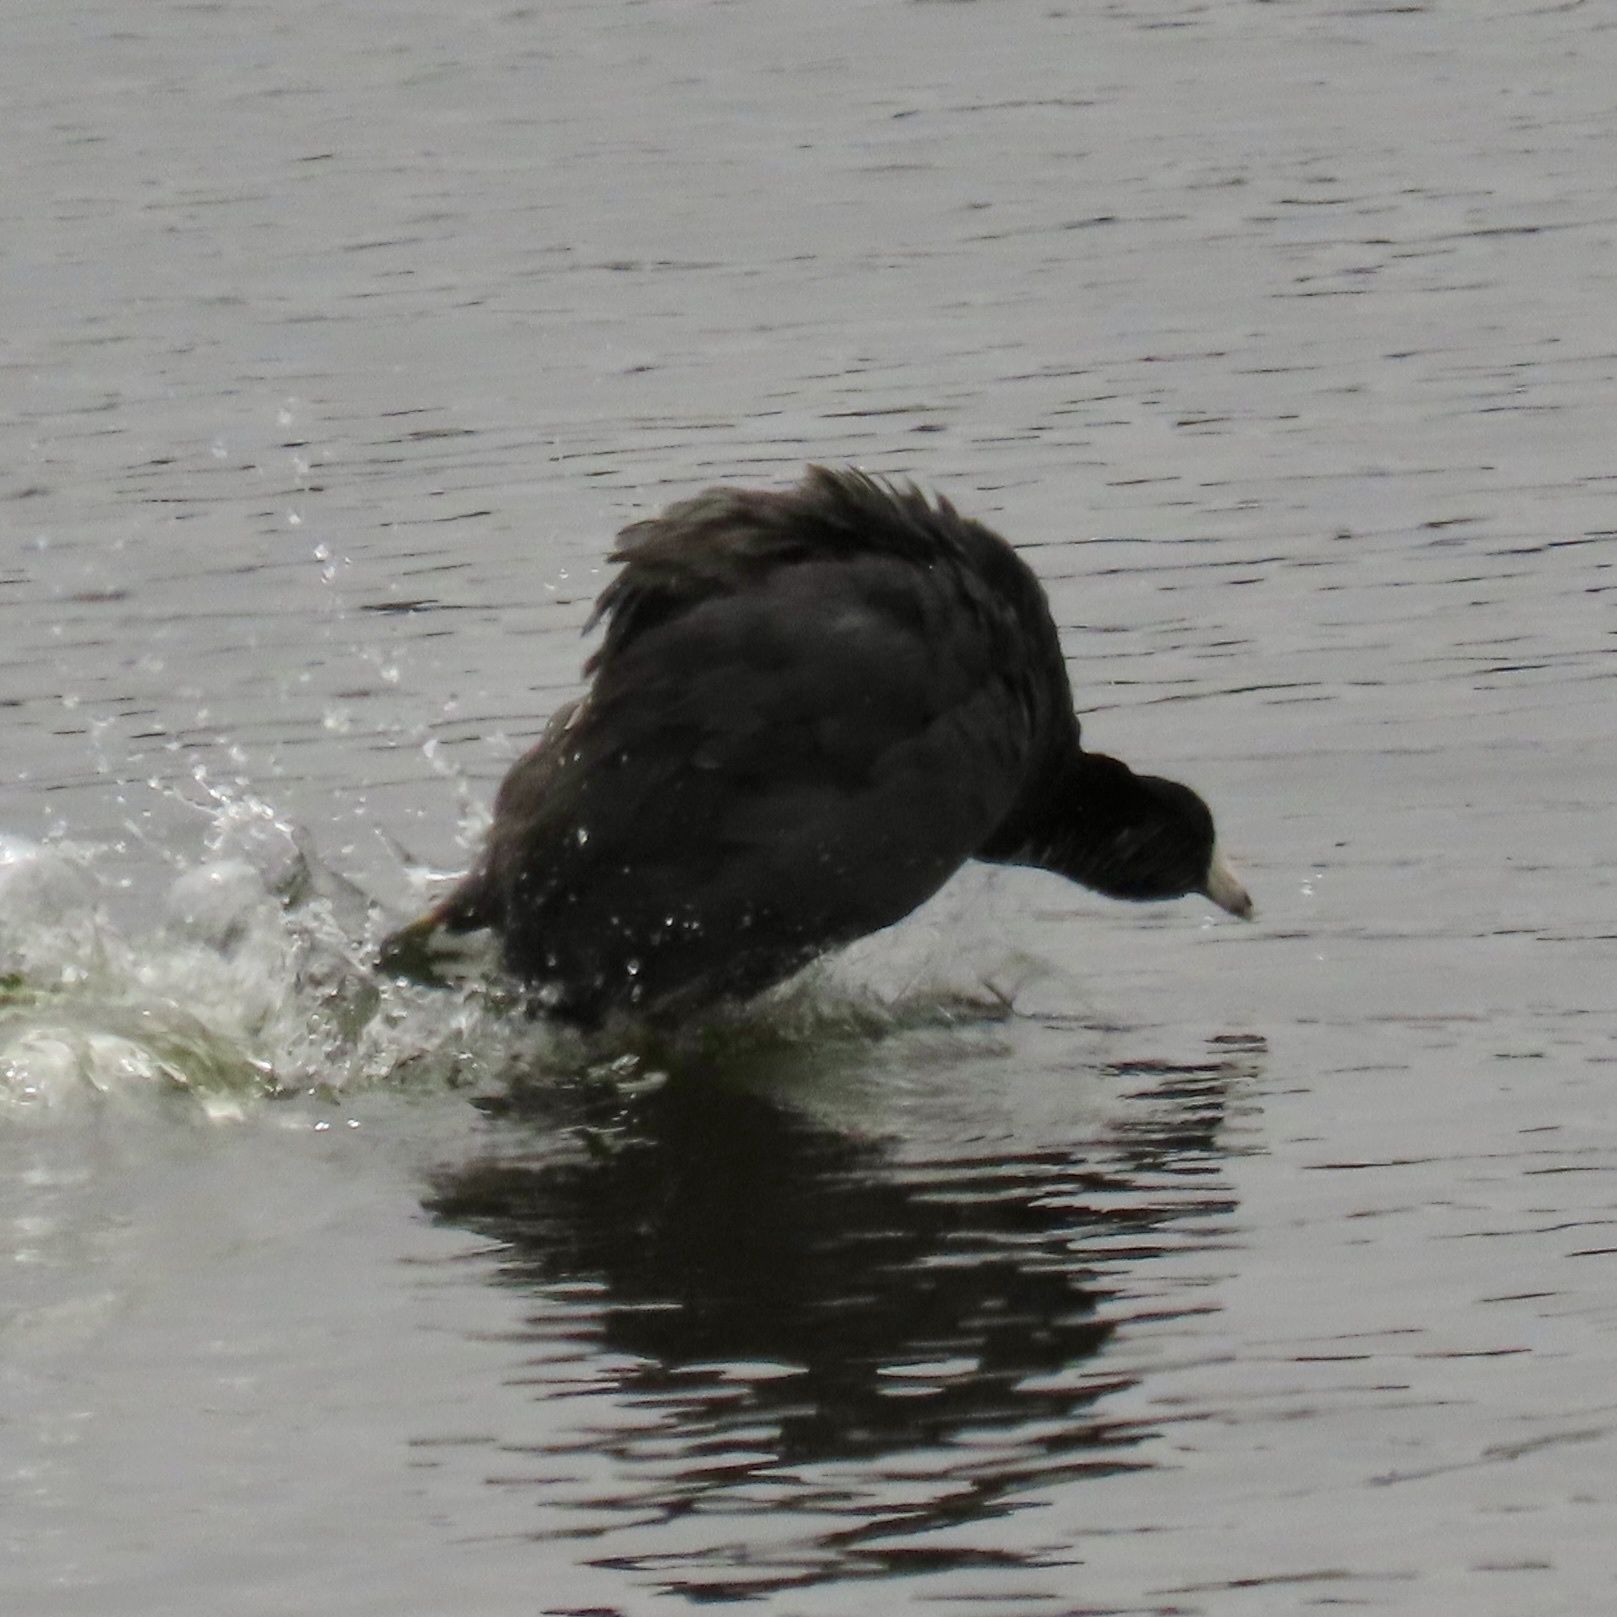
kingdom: Animalia
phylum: Chordata
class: Aves
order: Gruiformes
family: Rallidae
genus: Fulica
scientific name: Fulica americana
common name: American coot
